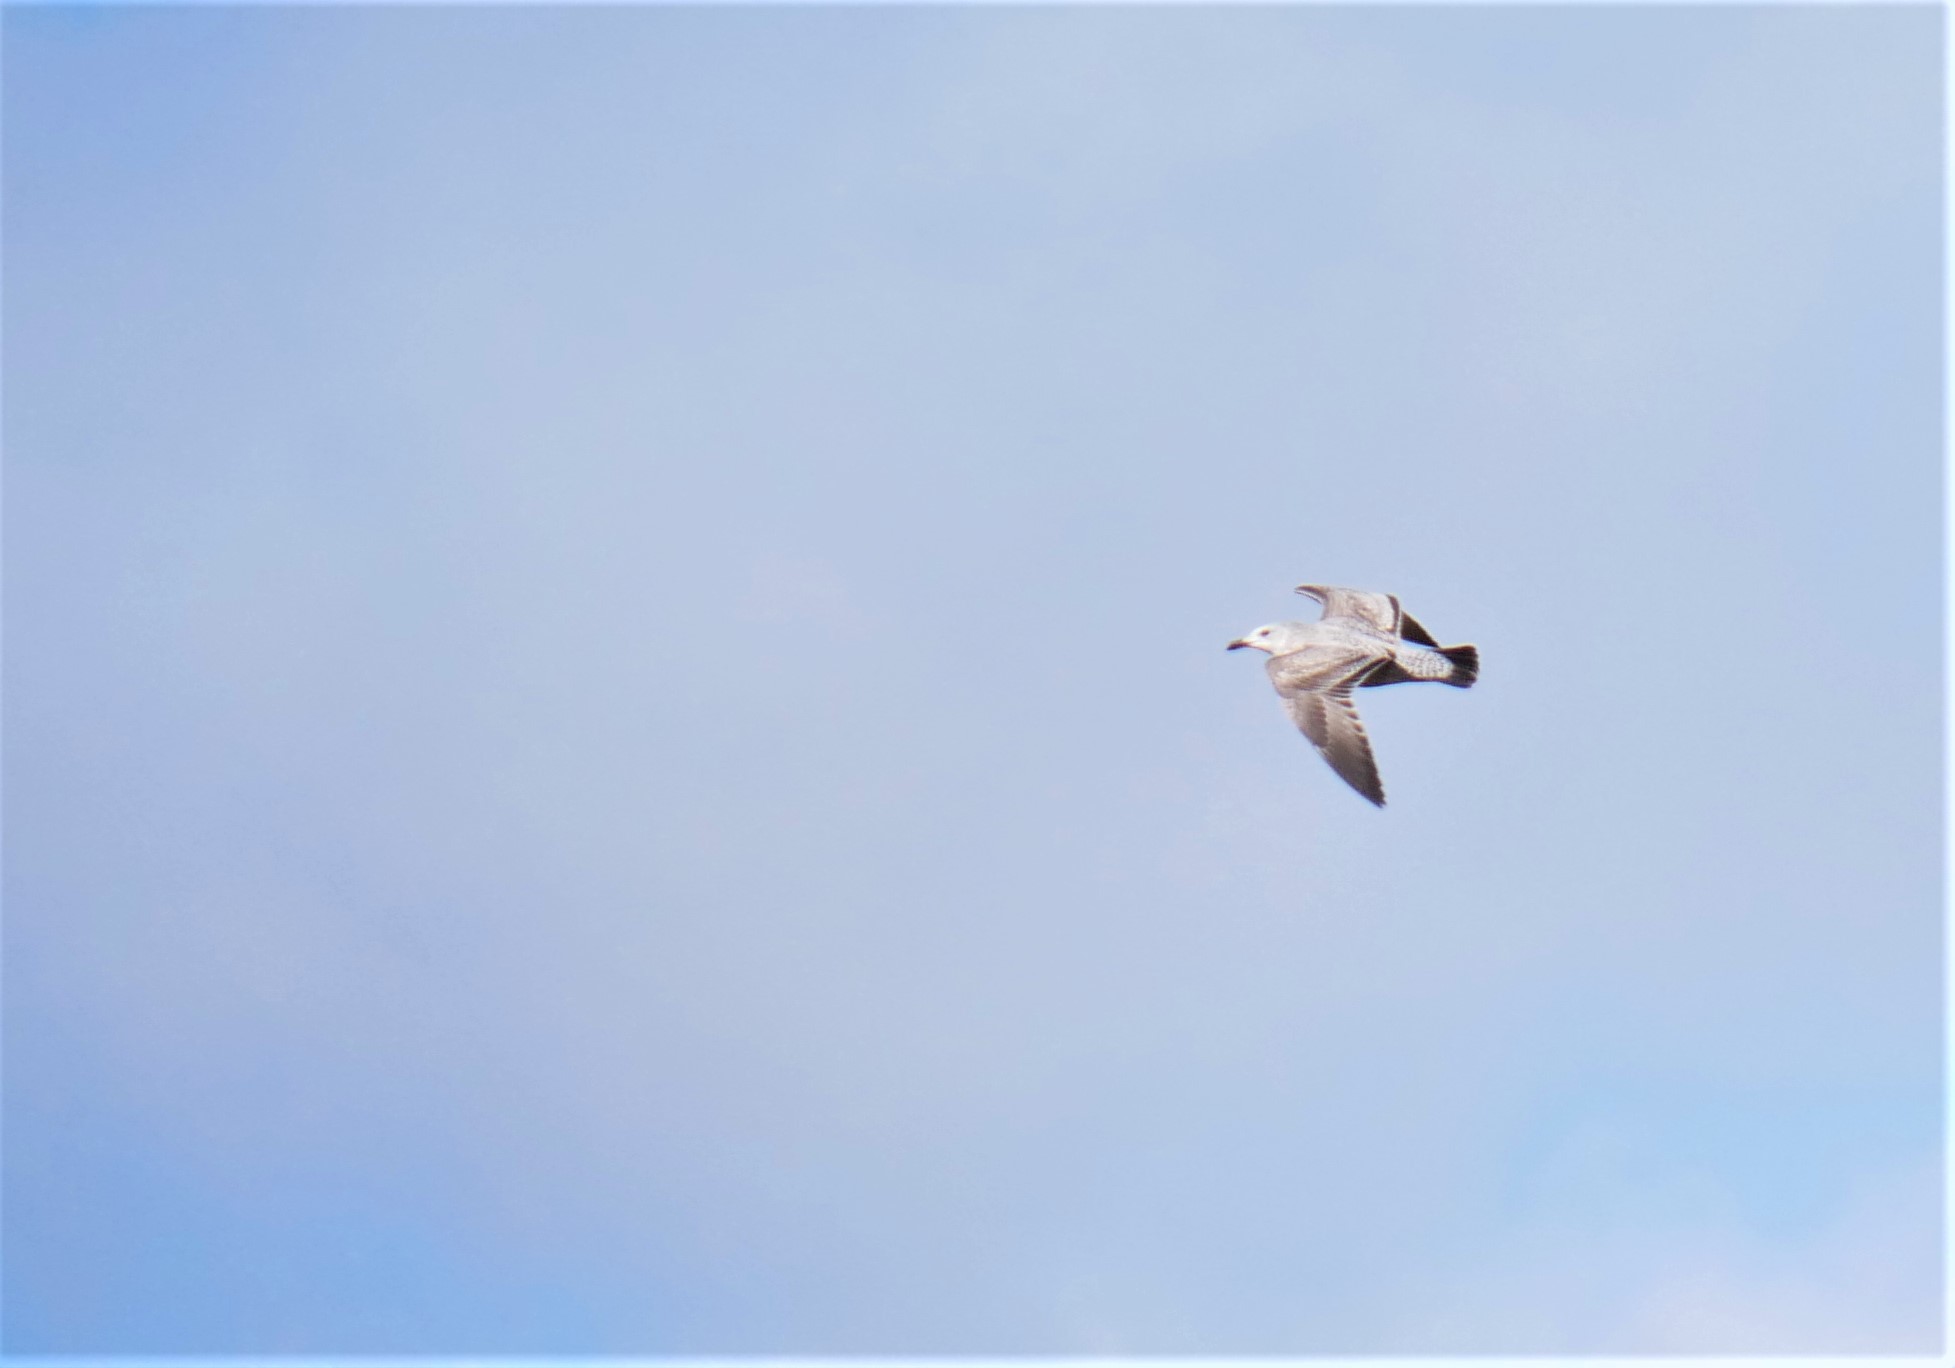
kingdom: Animalia
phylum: Chordata
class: Aves
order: Charadriiformes
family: Laridae
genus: Larus
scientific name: Larus argentatus
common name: Herring gull
